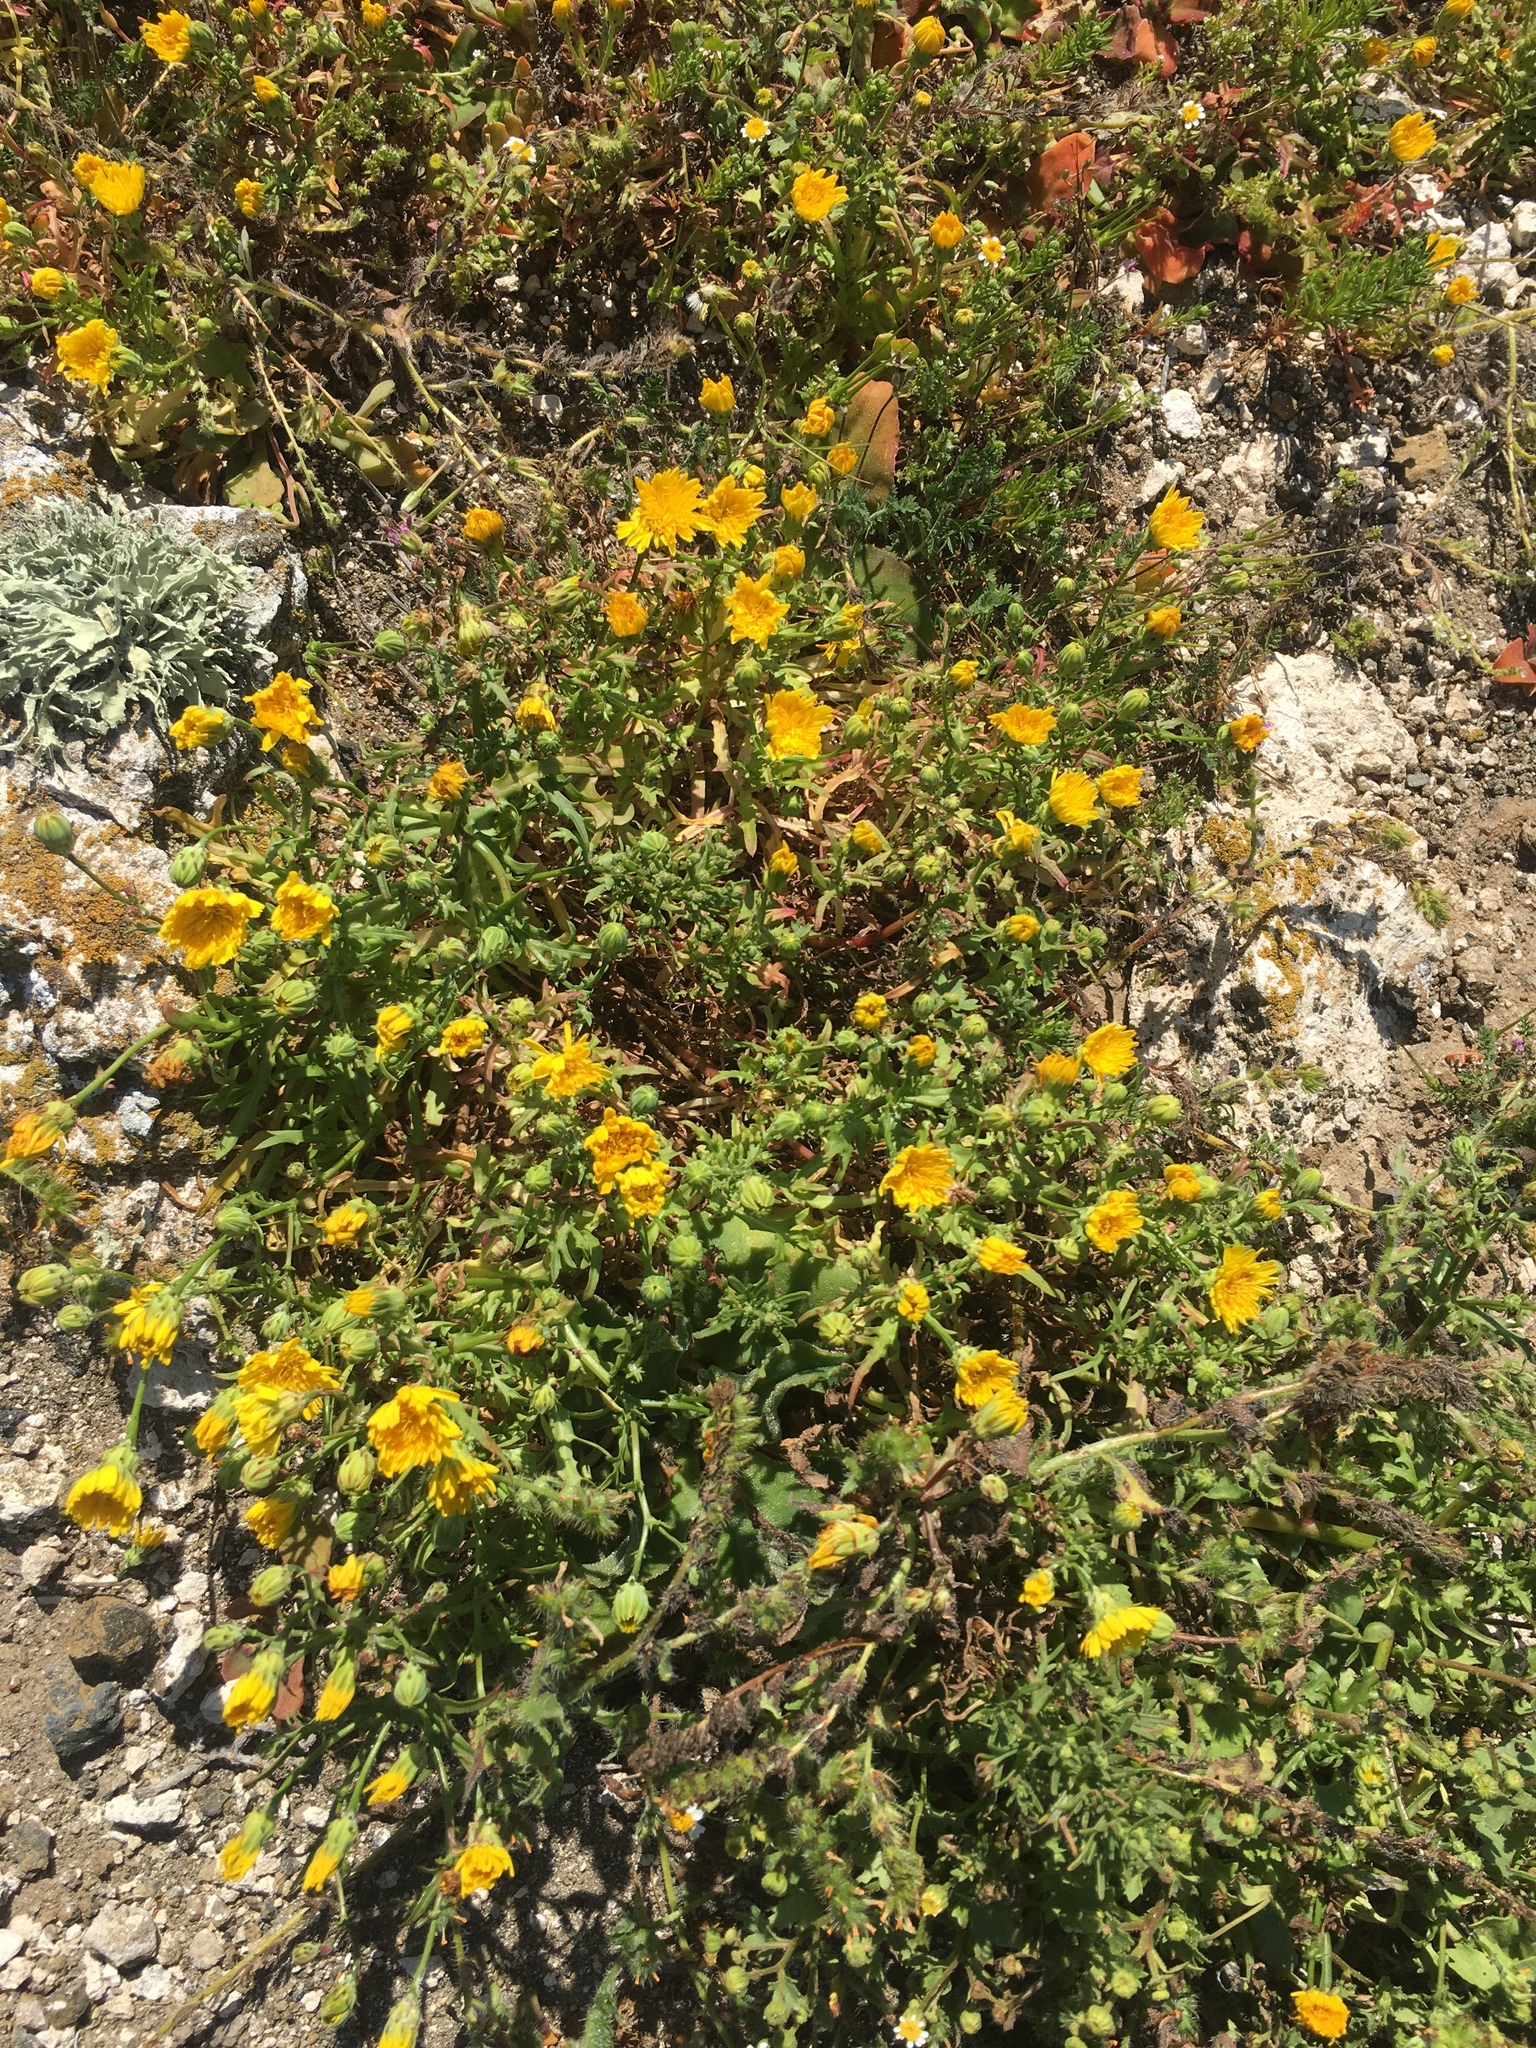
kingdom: Plantae
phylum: Tracheophyta
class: Magnoliopsida
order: Asterales
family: Asteraceae
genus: Malacothrix
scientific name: Malacothrix foliosa
